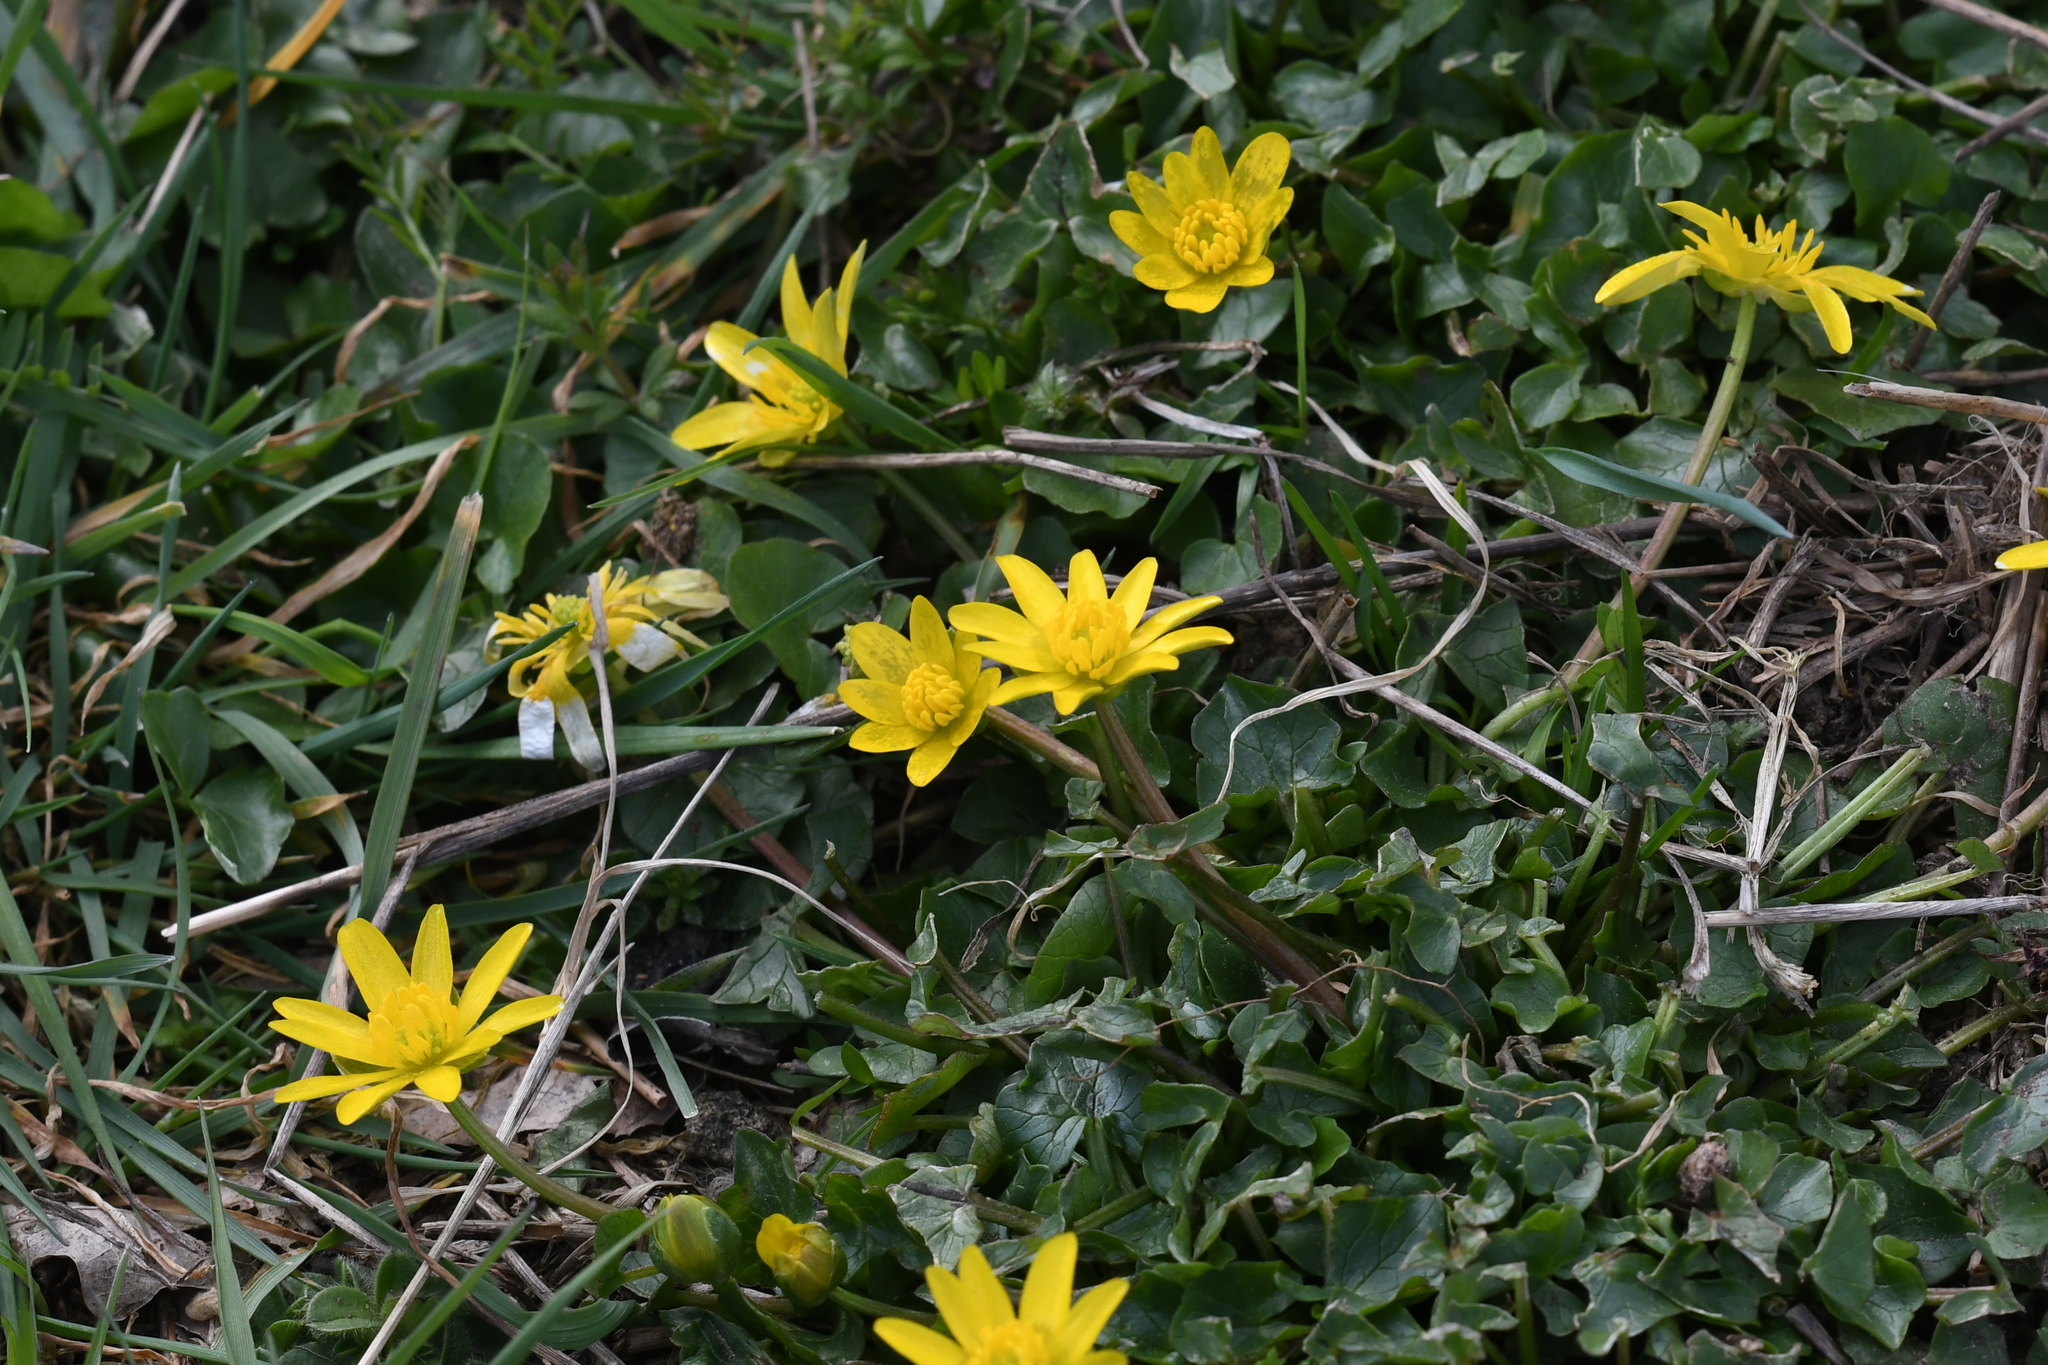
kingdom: Plantae
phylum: Tracheophyta
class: Magnoliopsida
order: Ranunculales
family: Ranunculaceae
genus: Ficaria
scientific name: Ficaria verna
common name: Lesser celandine
